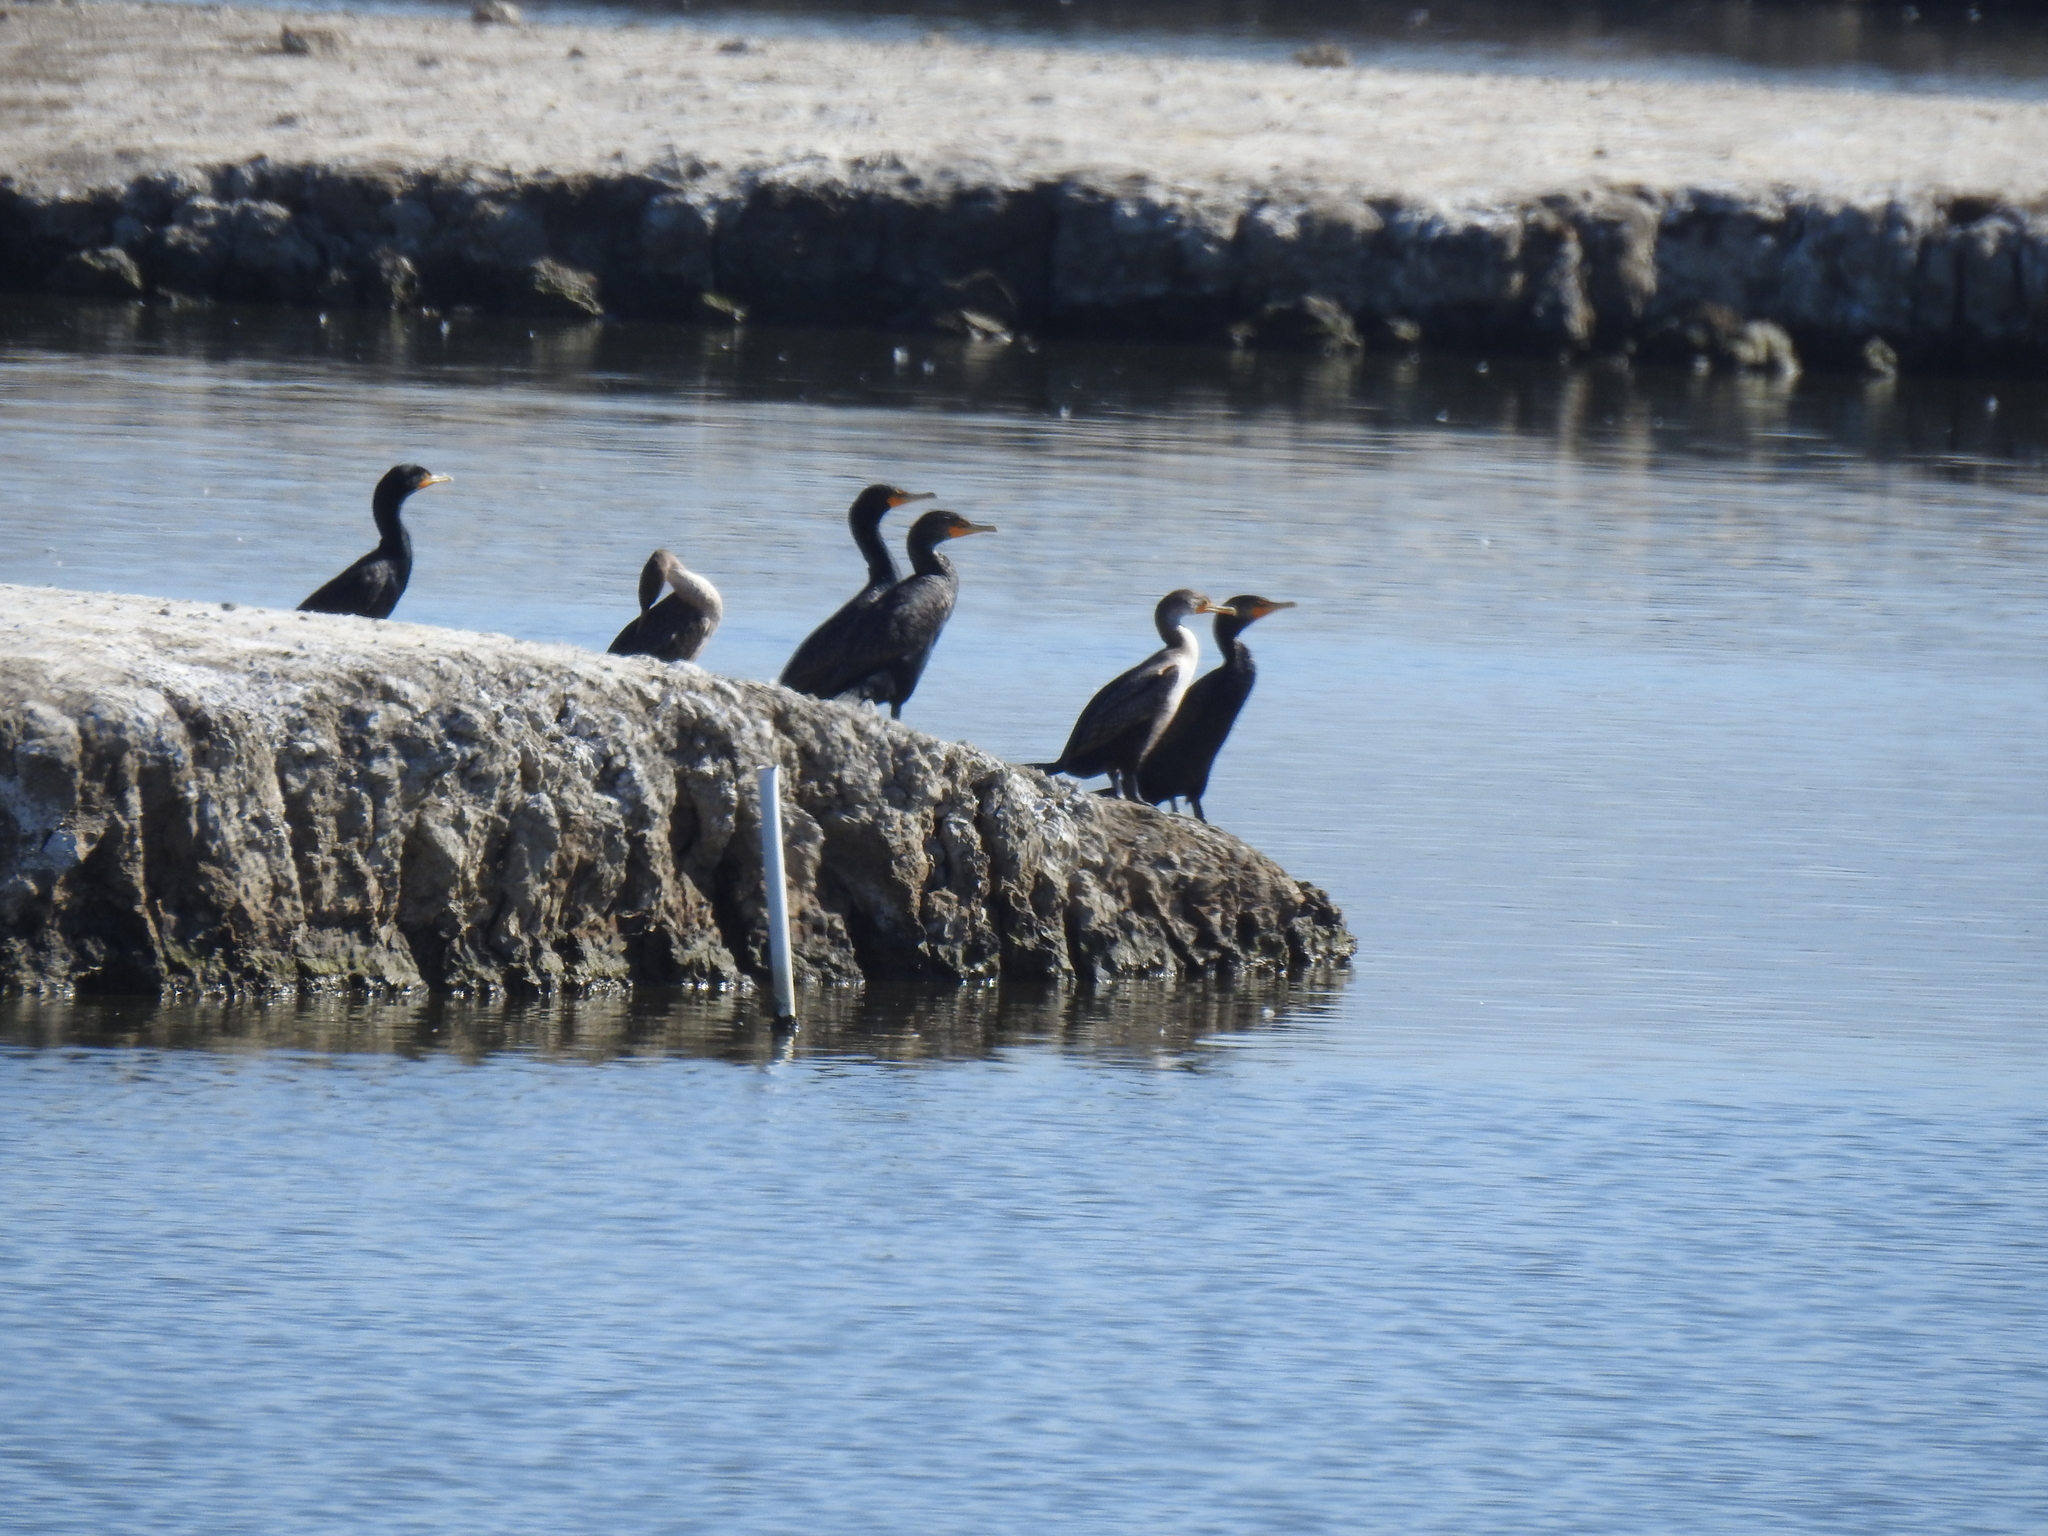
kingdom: Animalia
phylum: Chordata
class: Aves
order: Suliformes
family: Phalacrocoracidae
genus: Phalacrocorax
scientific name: Phalacrocorax auritus
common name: Double-crested cormorant
